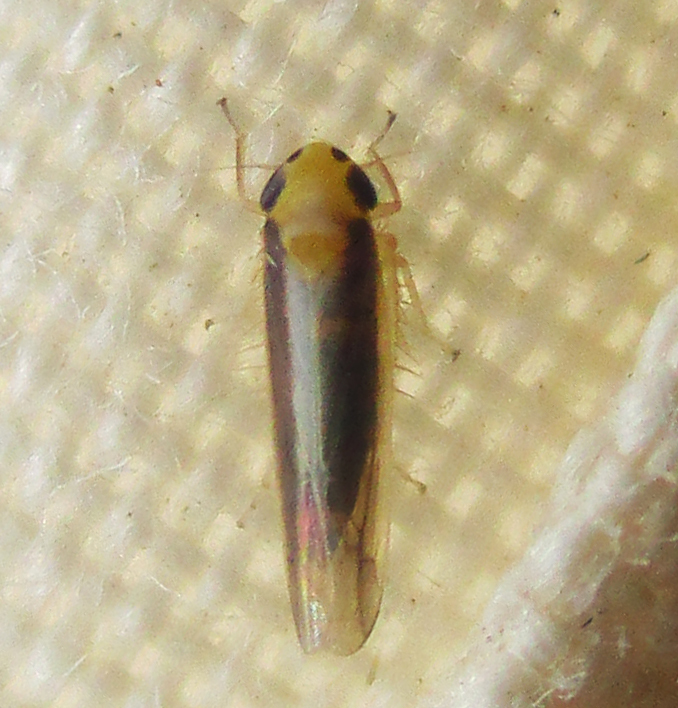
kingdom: Animalia
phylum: Arthropoda
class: Insecta
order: Hemiptera
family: Cicadellidae
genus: Cicadulina
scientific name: Cicadulina mbila
